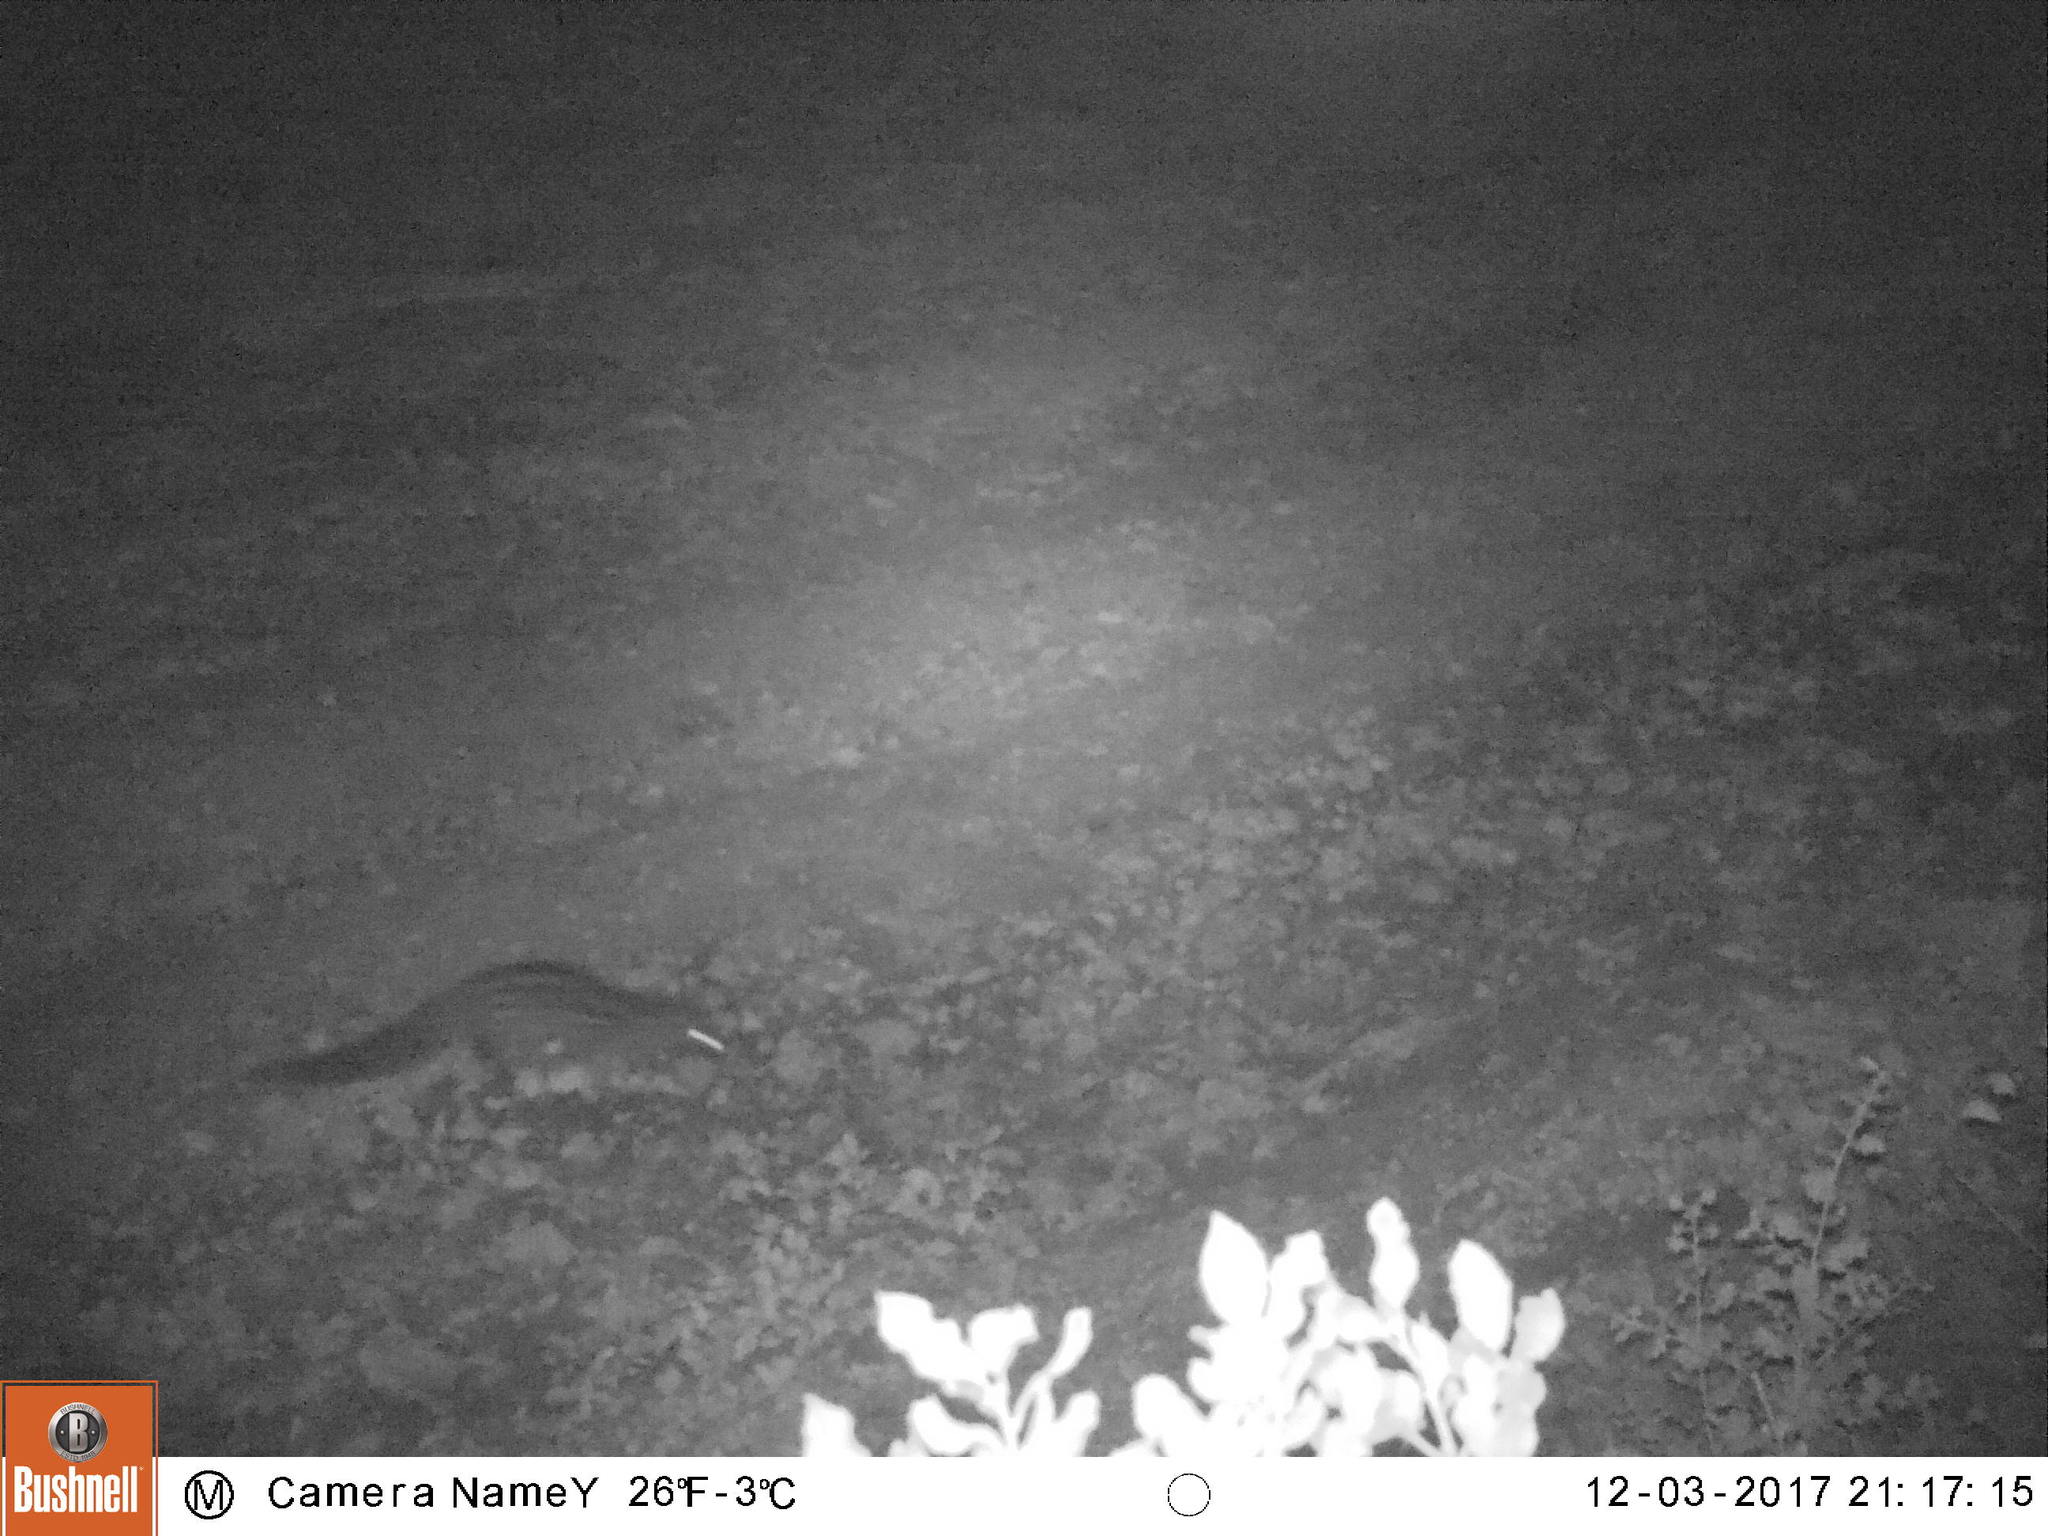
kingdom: Animalia
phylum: Chordata
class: Mammalia
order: Carnivora
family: Viverridae
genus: Genetta
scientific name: Genetta genetta
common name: Common genet
